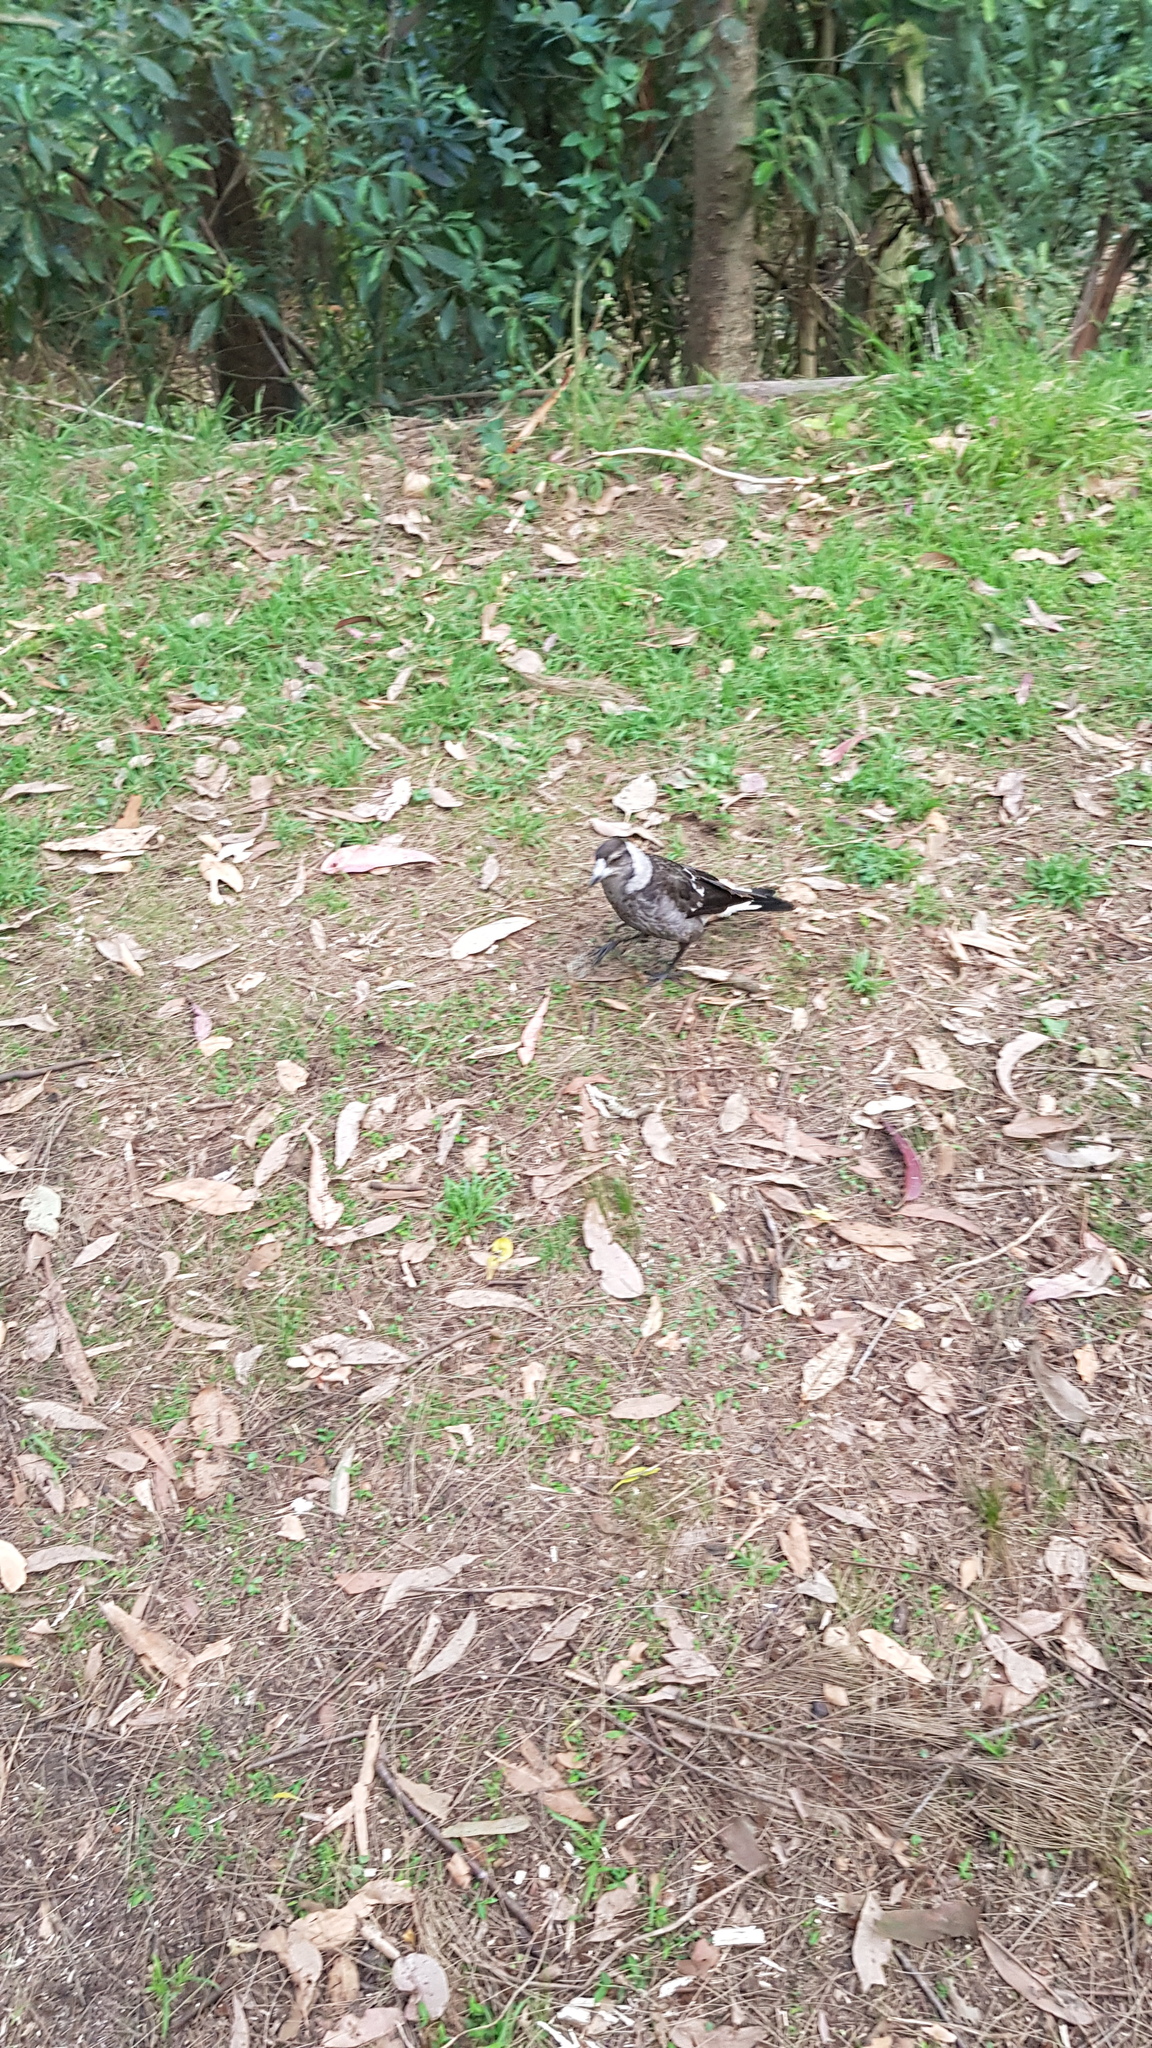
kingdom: Animalia
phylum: Chordata
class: Aves
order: Passeriformes
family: Cracticidae
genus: Gymnorhina
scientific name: Gymnorhina tibicen
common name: Australian magpie
